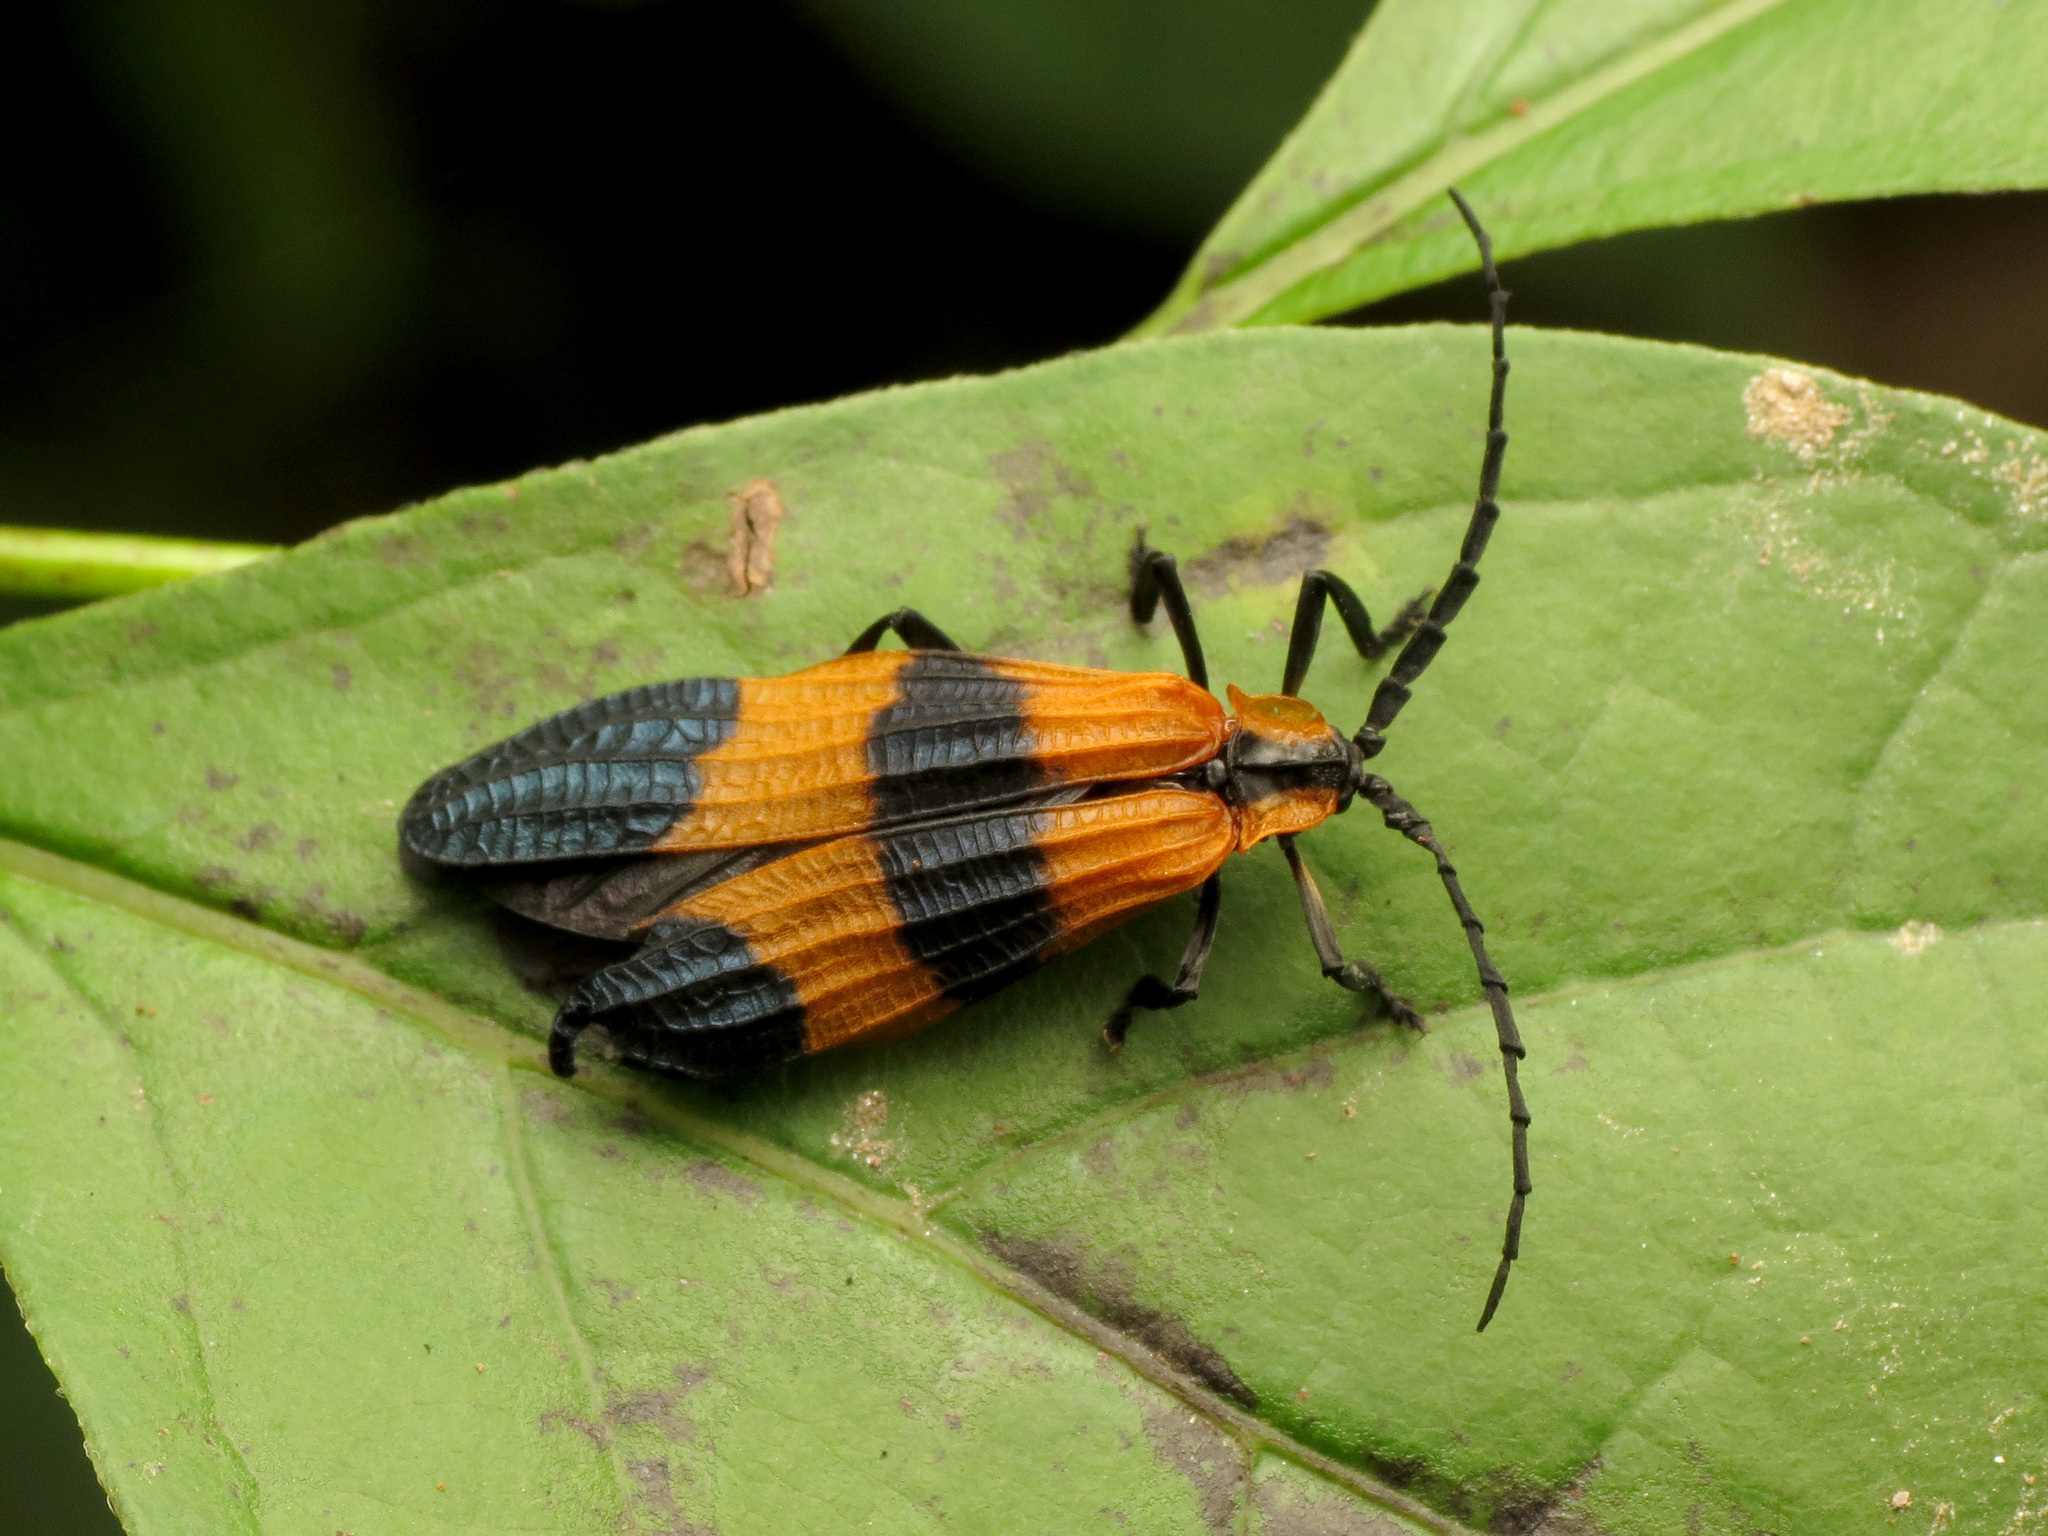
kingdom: Animalia
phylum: Arthropoda
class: Insecta
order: Coleoptera
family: Lycidae
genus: Calopteron
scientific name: Calopteron terminale
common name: End band net-winged beetle
